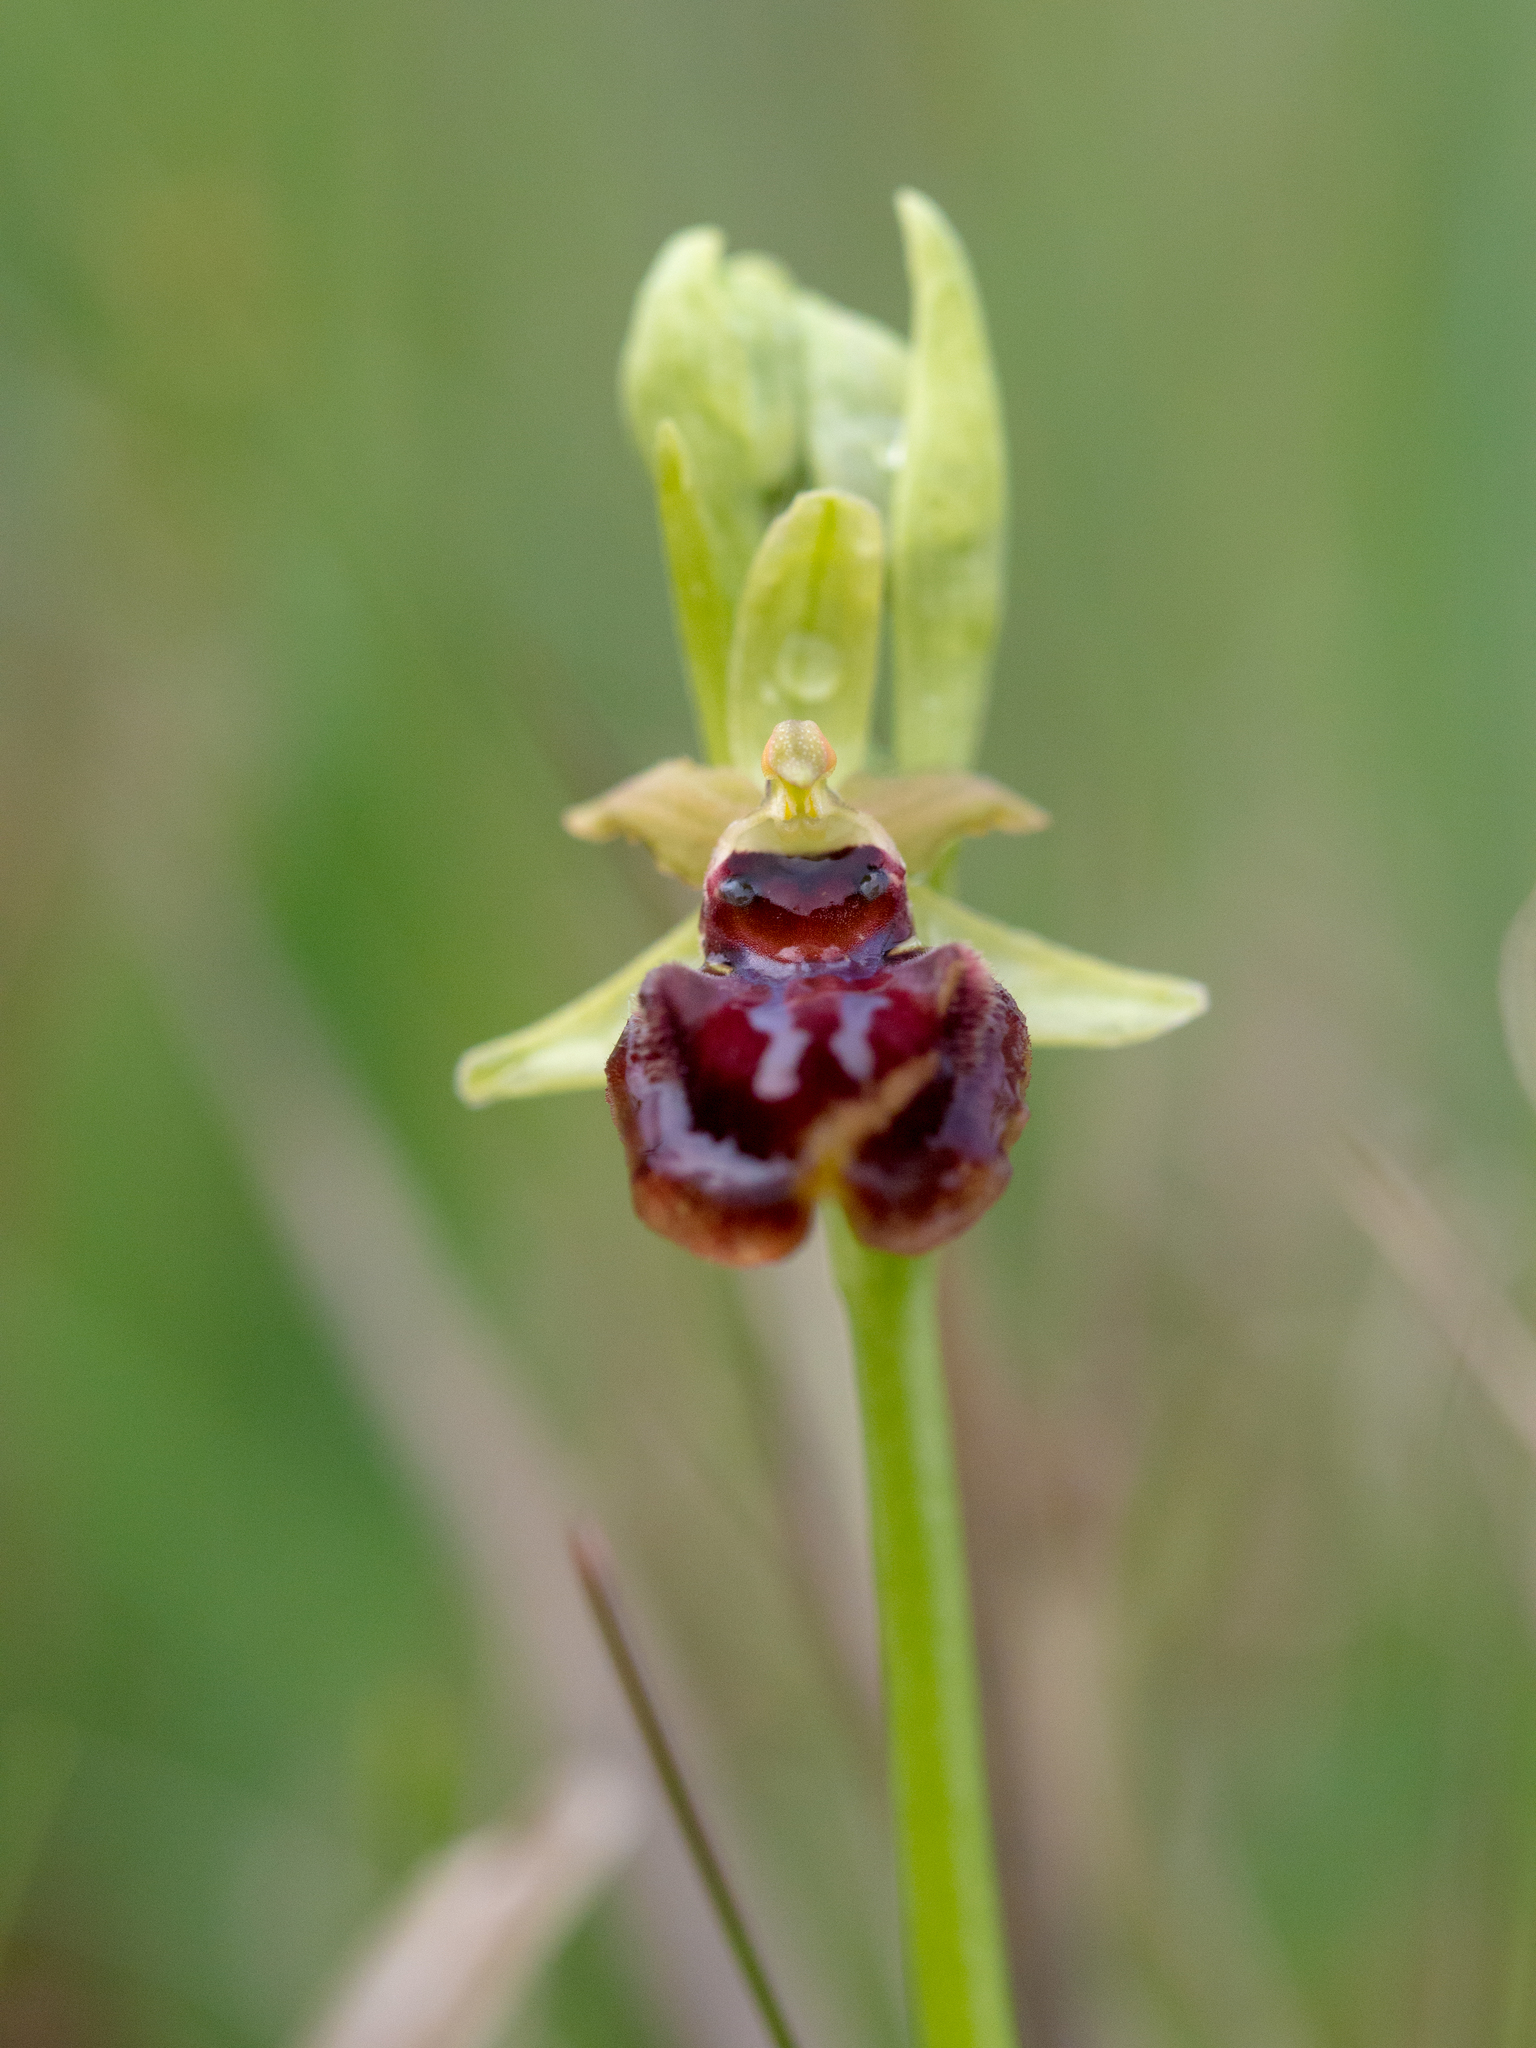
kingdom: Plantae
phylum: Tracheophyta
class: Liliopsida
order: Asparagales
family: Orchidaceae
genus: Ophrys
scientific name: Ophrys sphegodes
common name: Early spider-orchid
